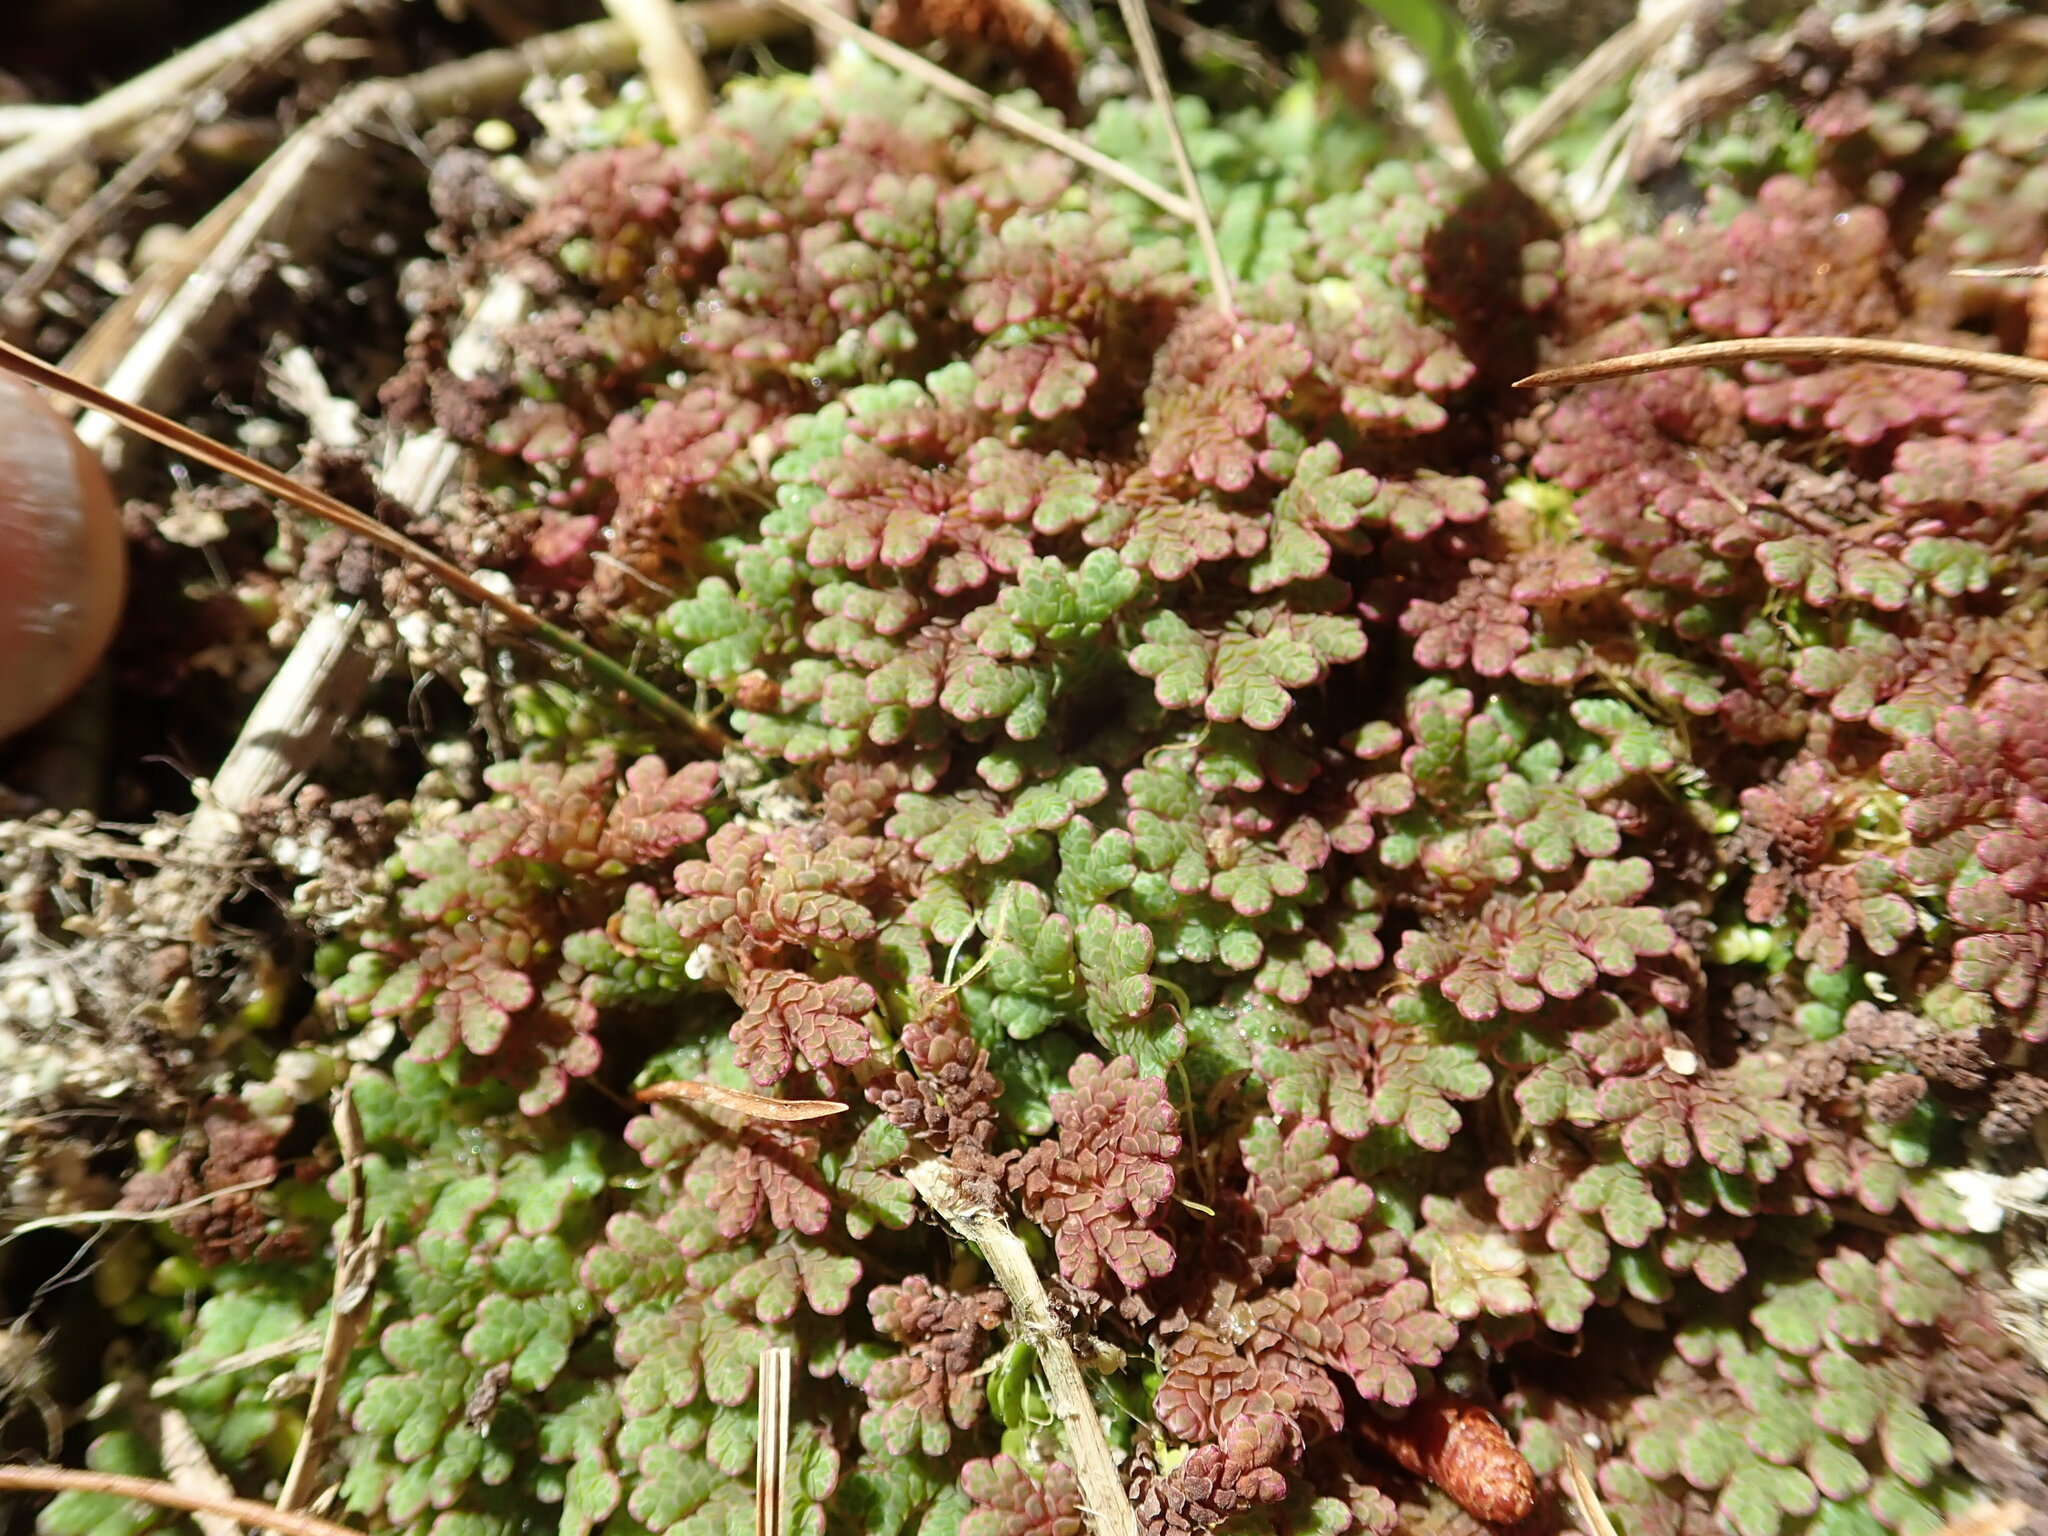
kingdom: Plantae
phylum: Tracheophyta
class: Polypodiopsida
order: Salviniales
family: Salviniaceae
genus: Azolla
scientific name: Azolla rubra
